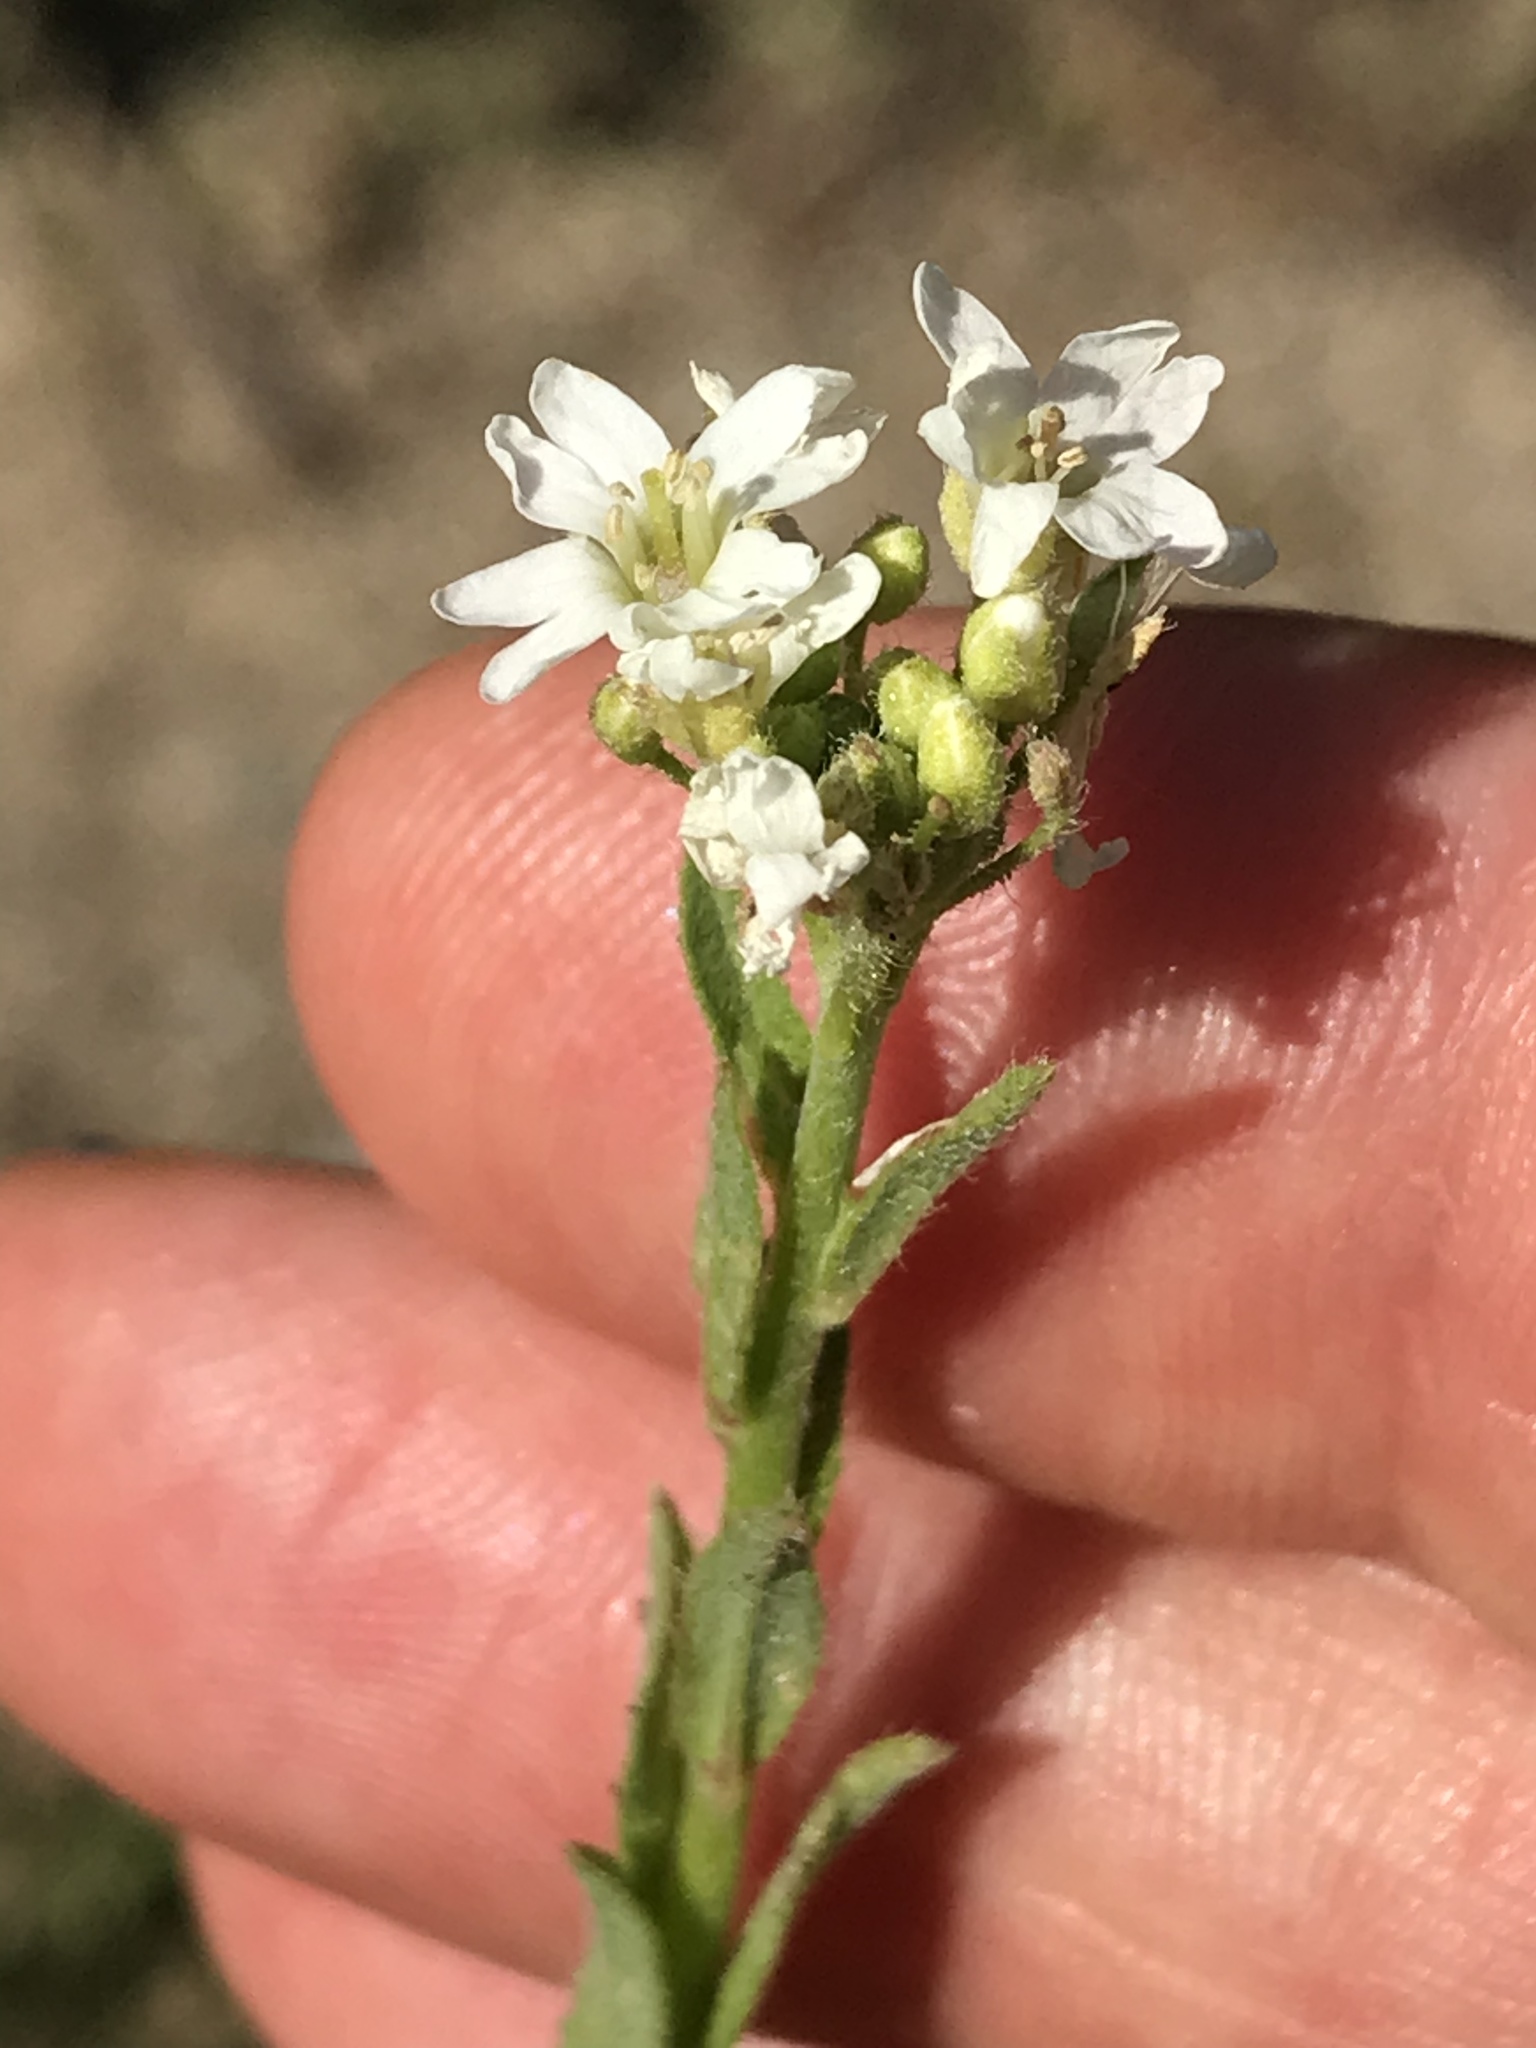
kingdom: Plantae
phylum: Tracheophyta
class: Magnoliopsida
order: Brassicales
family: Brassicaceae
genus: Berteroa
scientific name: Berteroa incana
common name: Hoary alison
